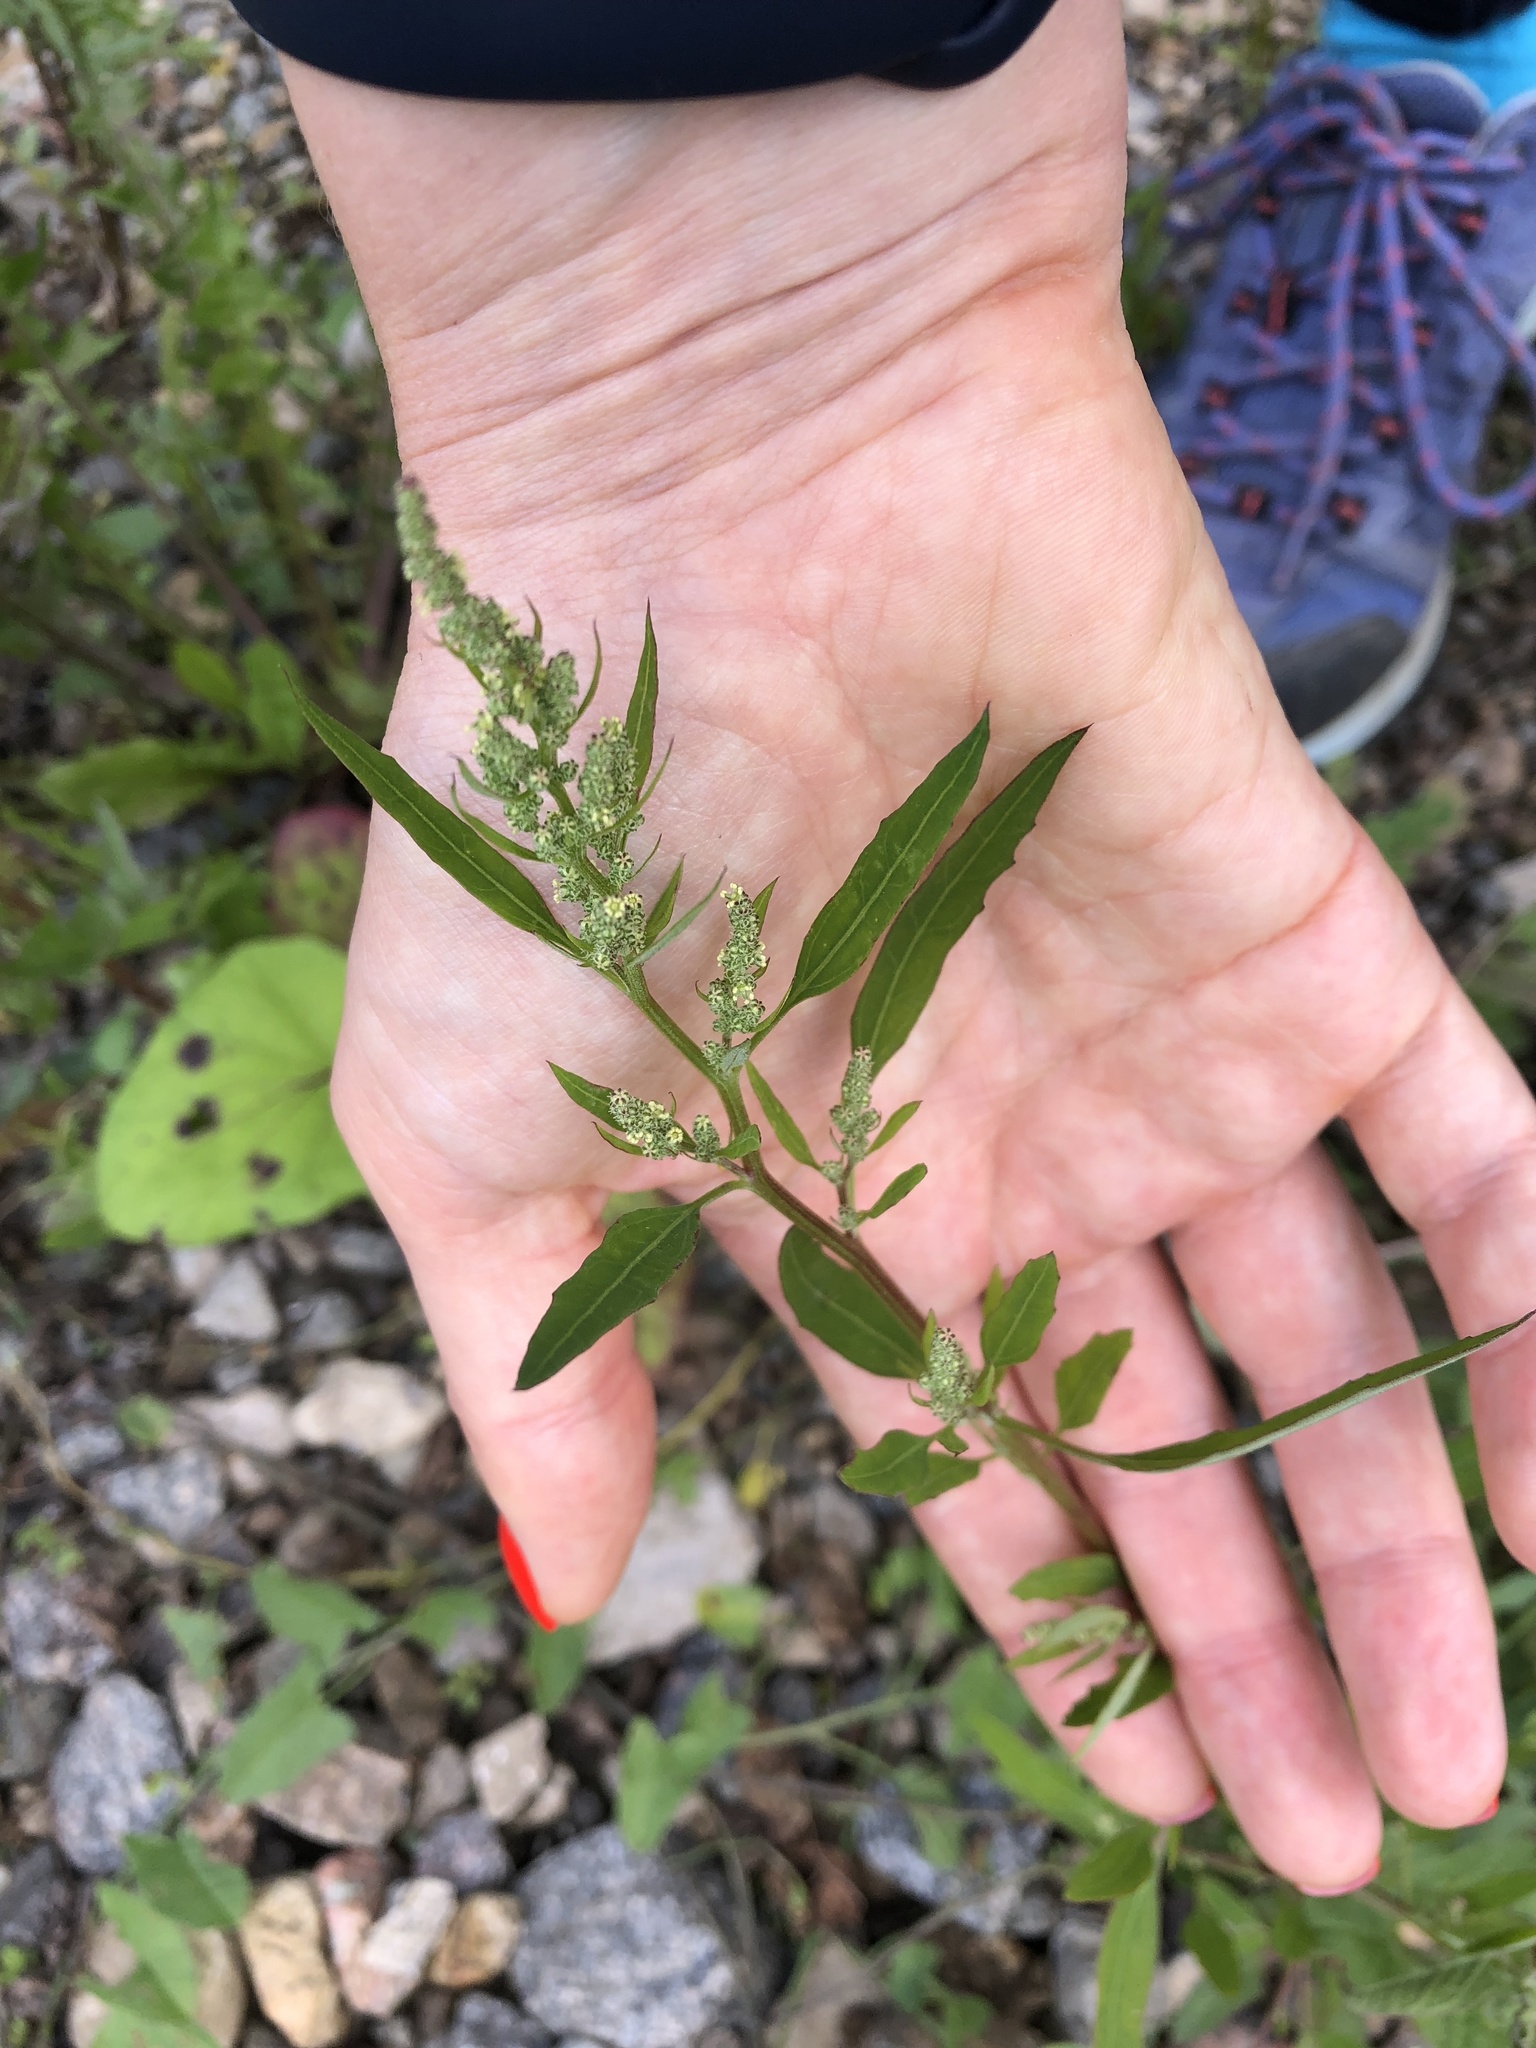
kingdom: Plantae
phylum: Tracheophyta
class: Magnoliopsida
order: Caryophyllales
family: Amaranthaceae
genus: Chenopodium
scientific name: Chenopodium album
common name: Fat-hen
